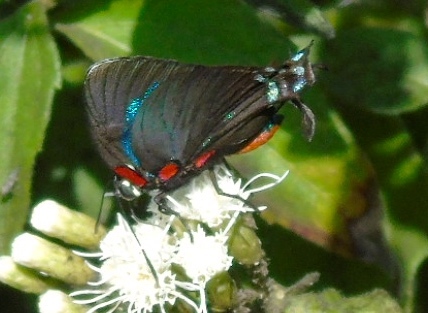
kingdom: Animalia
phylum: Arthropoda
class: Insecta
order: Lepidoptera
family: Lycaenidae
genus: Atlides
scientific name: Atlides
